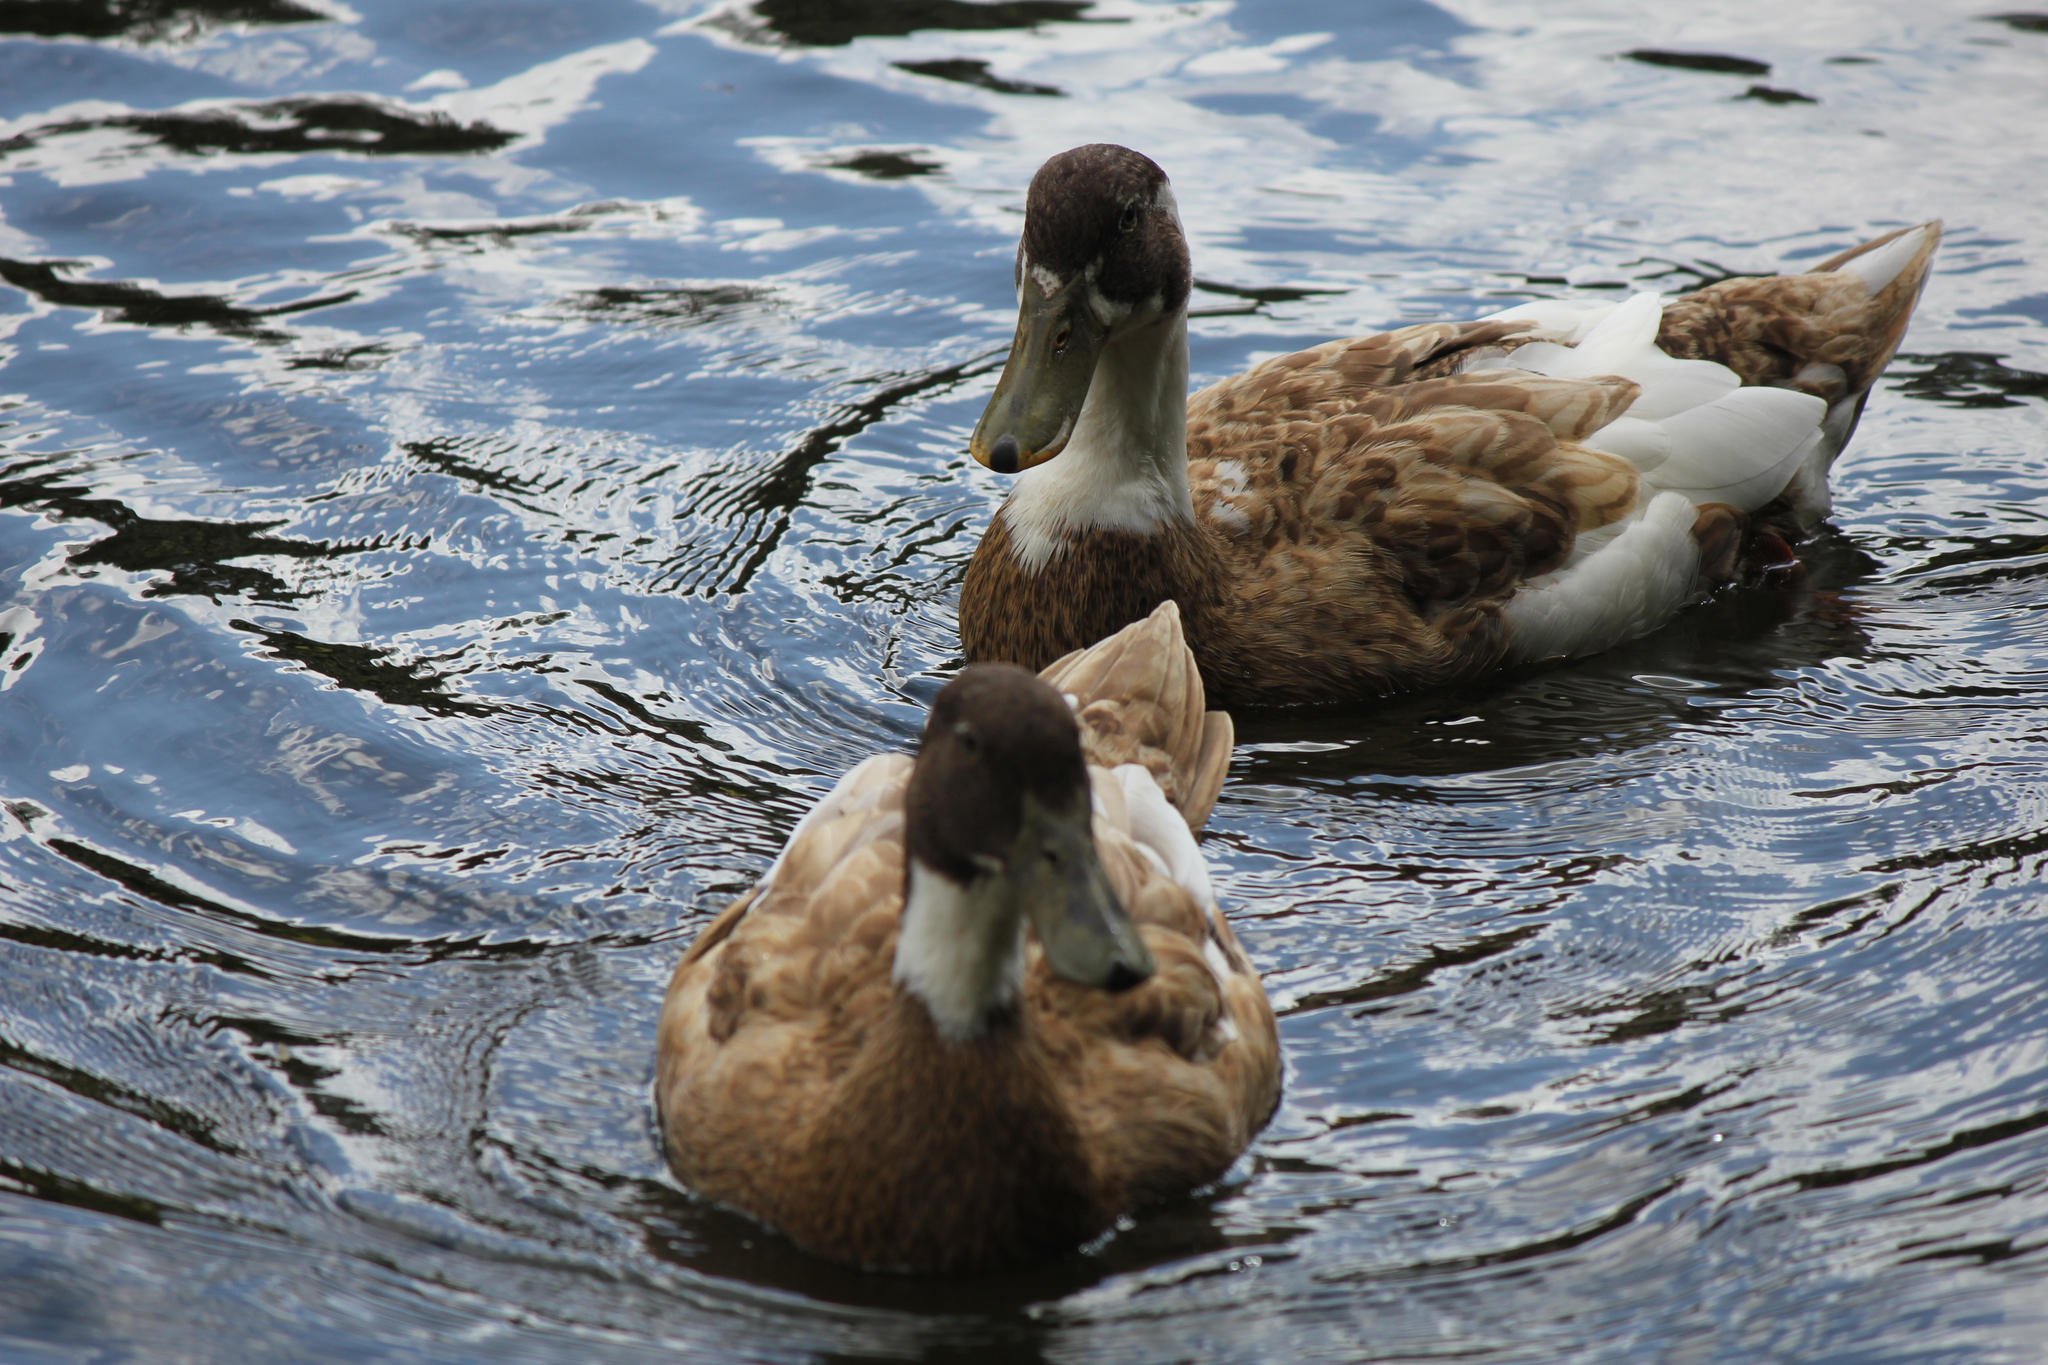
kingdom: Animalia
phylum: Chordata
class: Aves
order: Anseriformes
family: Anatidae
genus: Anas
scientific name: Anas platyrhynchos
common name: Mallard
